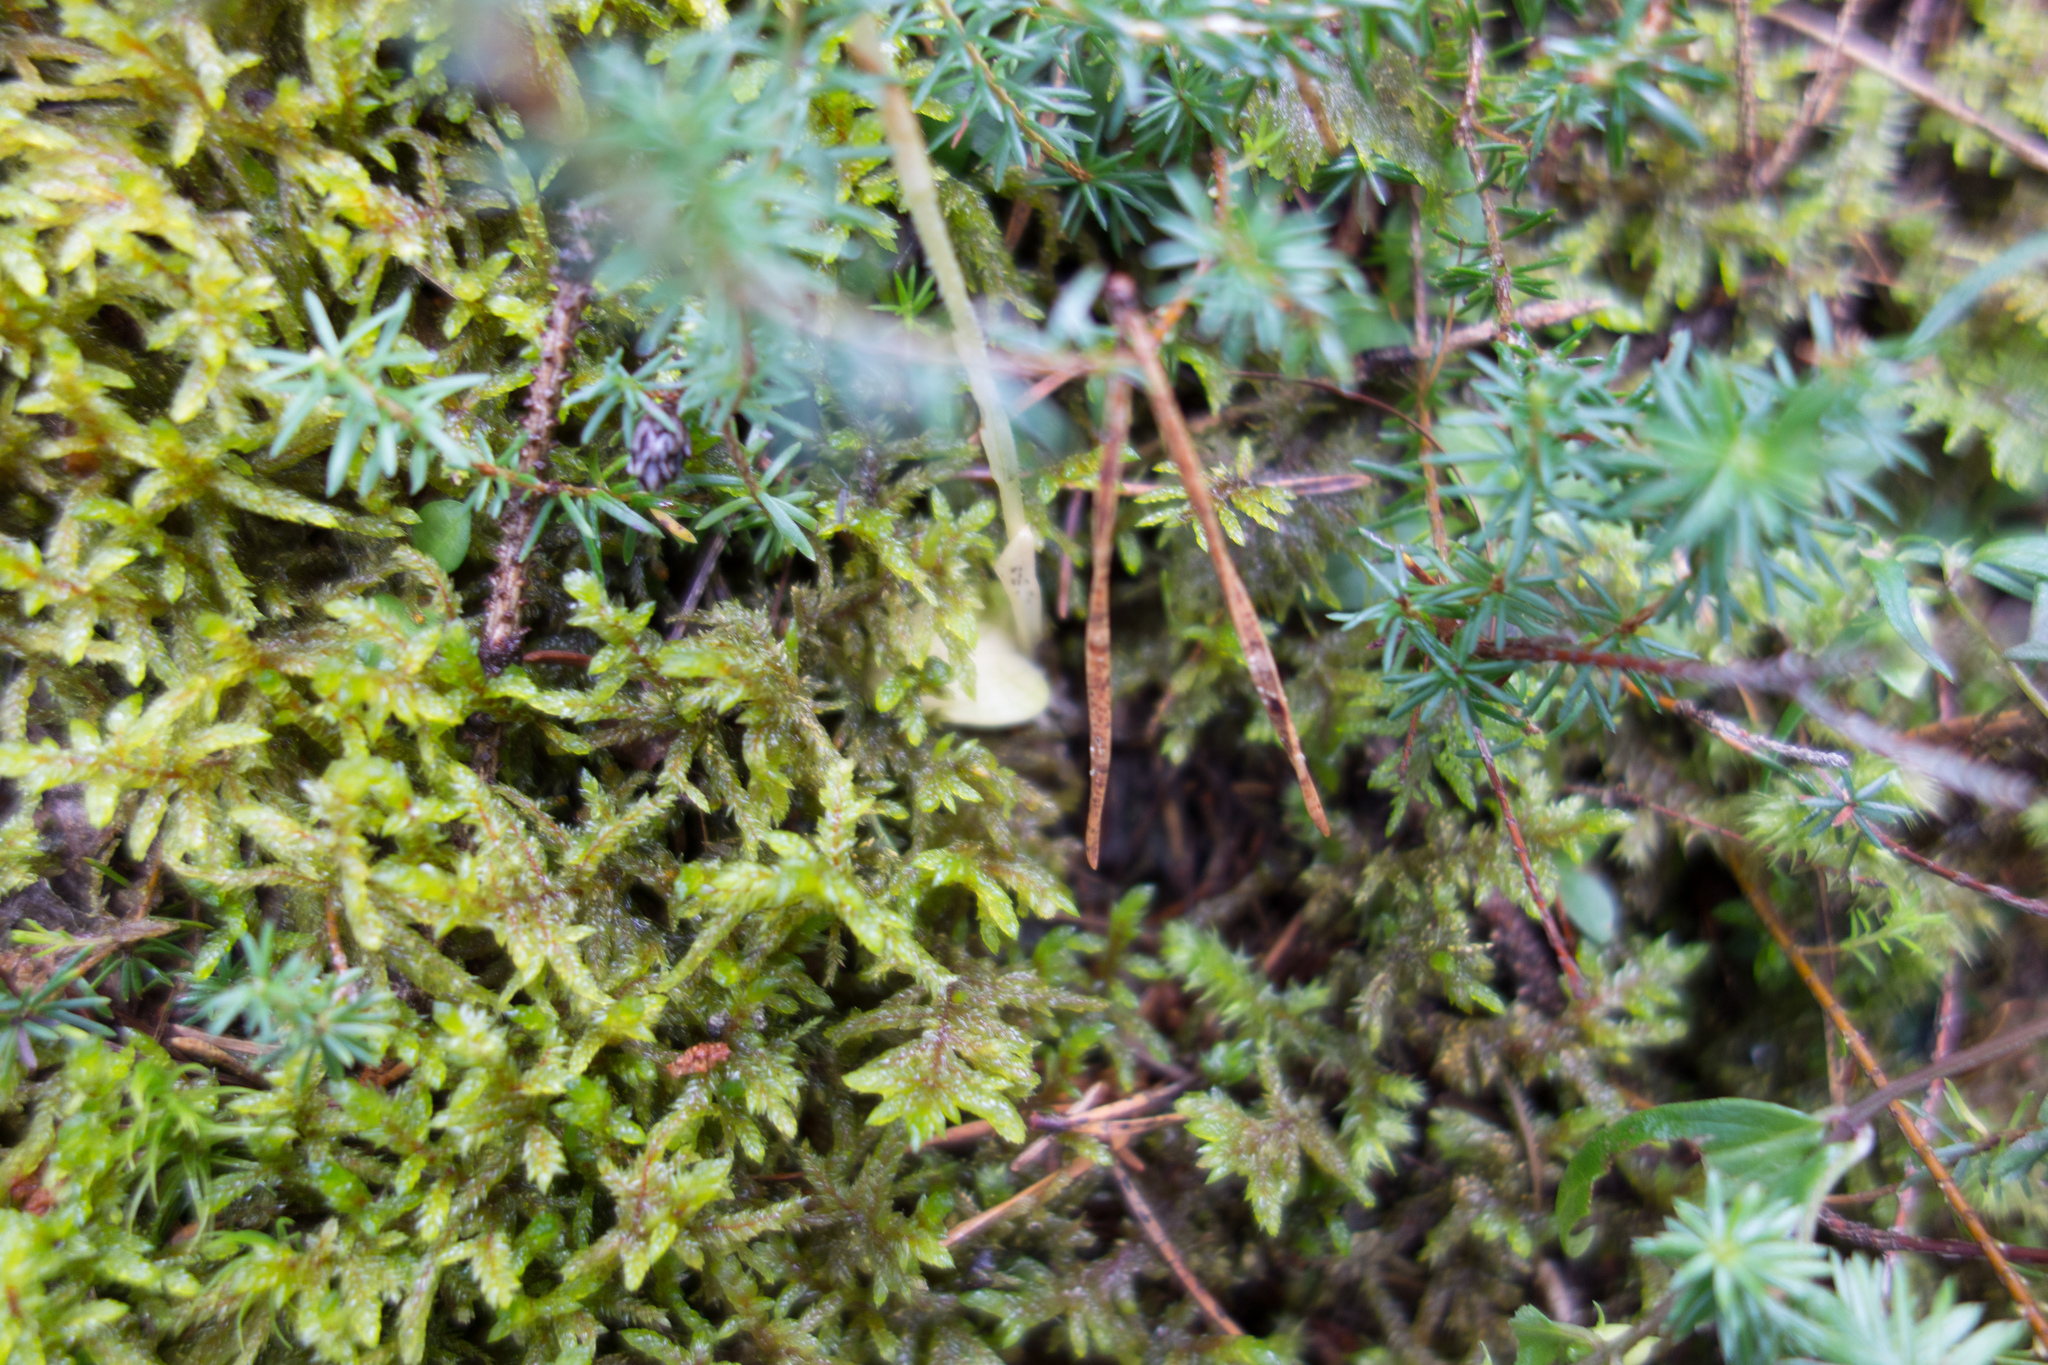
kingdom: Plantae
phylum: Tracheophyta
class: Liliopsida
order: Asparagales
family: Orchidaceae
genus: Goodyera
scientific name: Goodyera repens
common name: Creeping lady's-tresses
